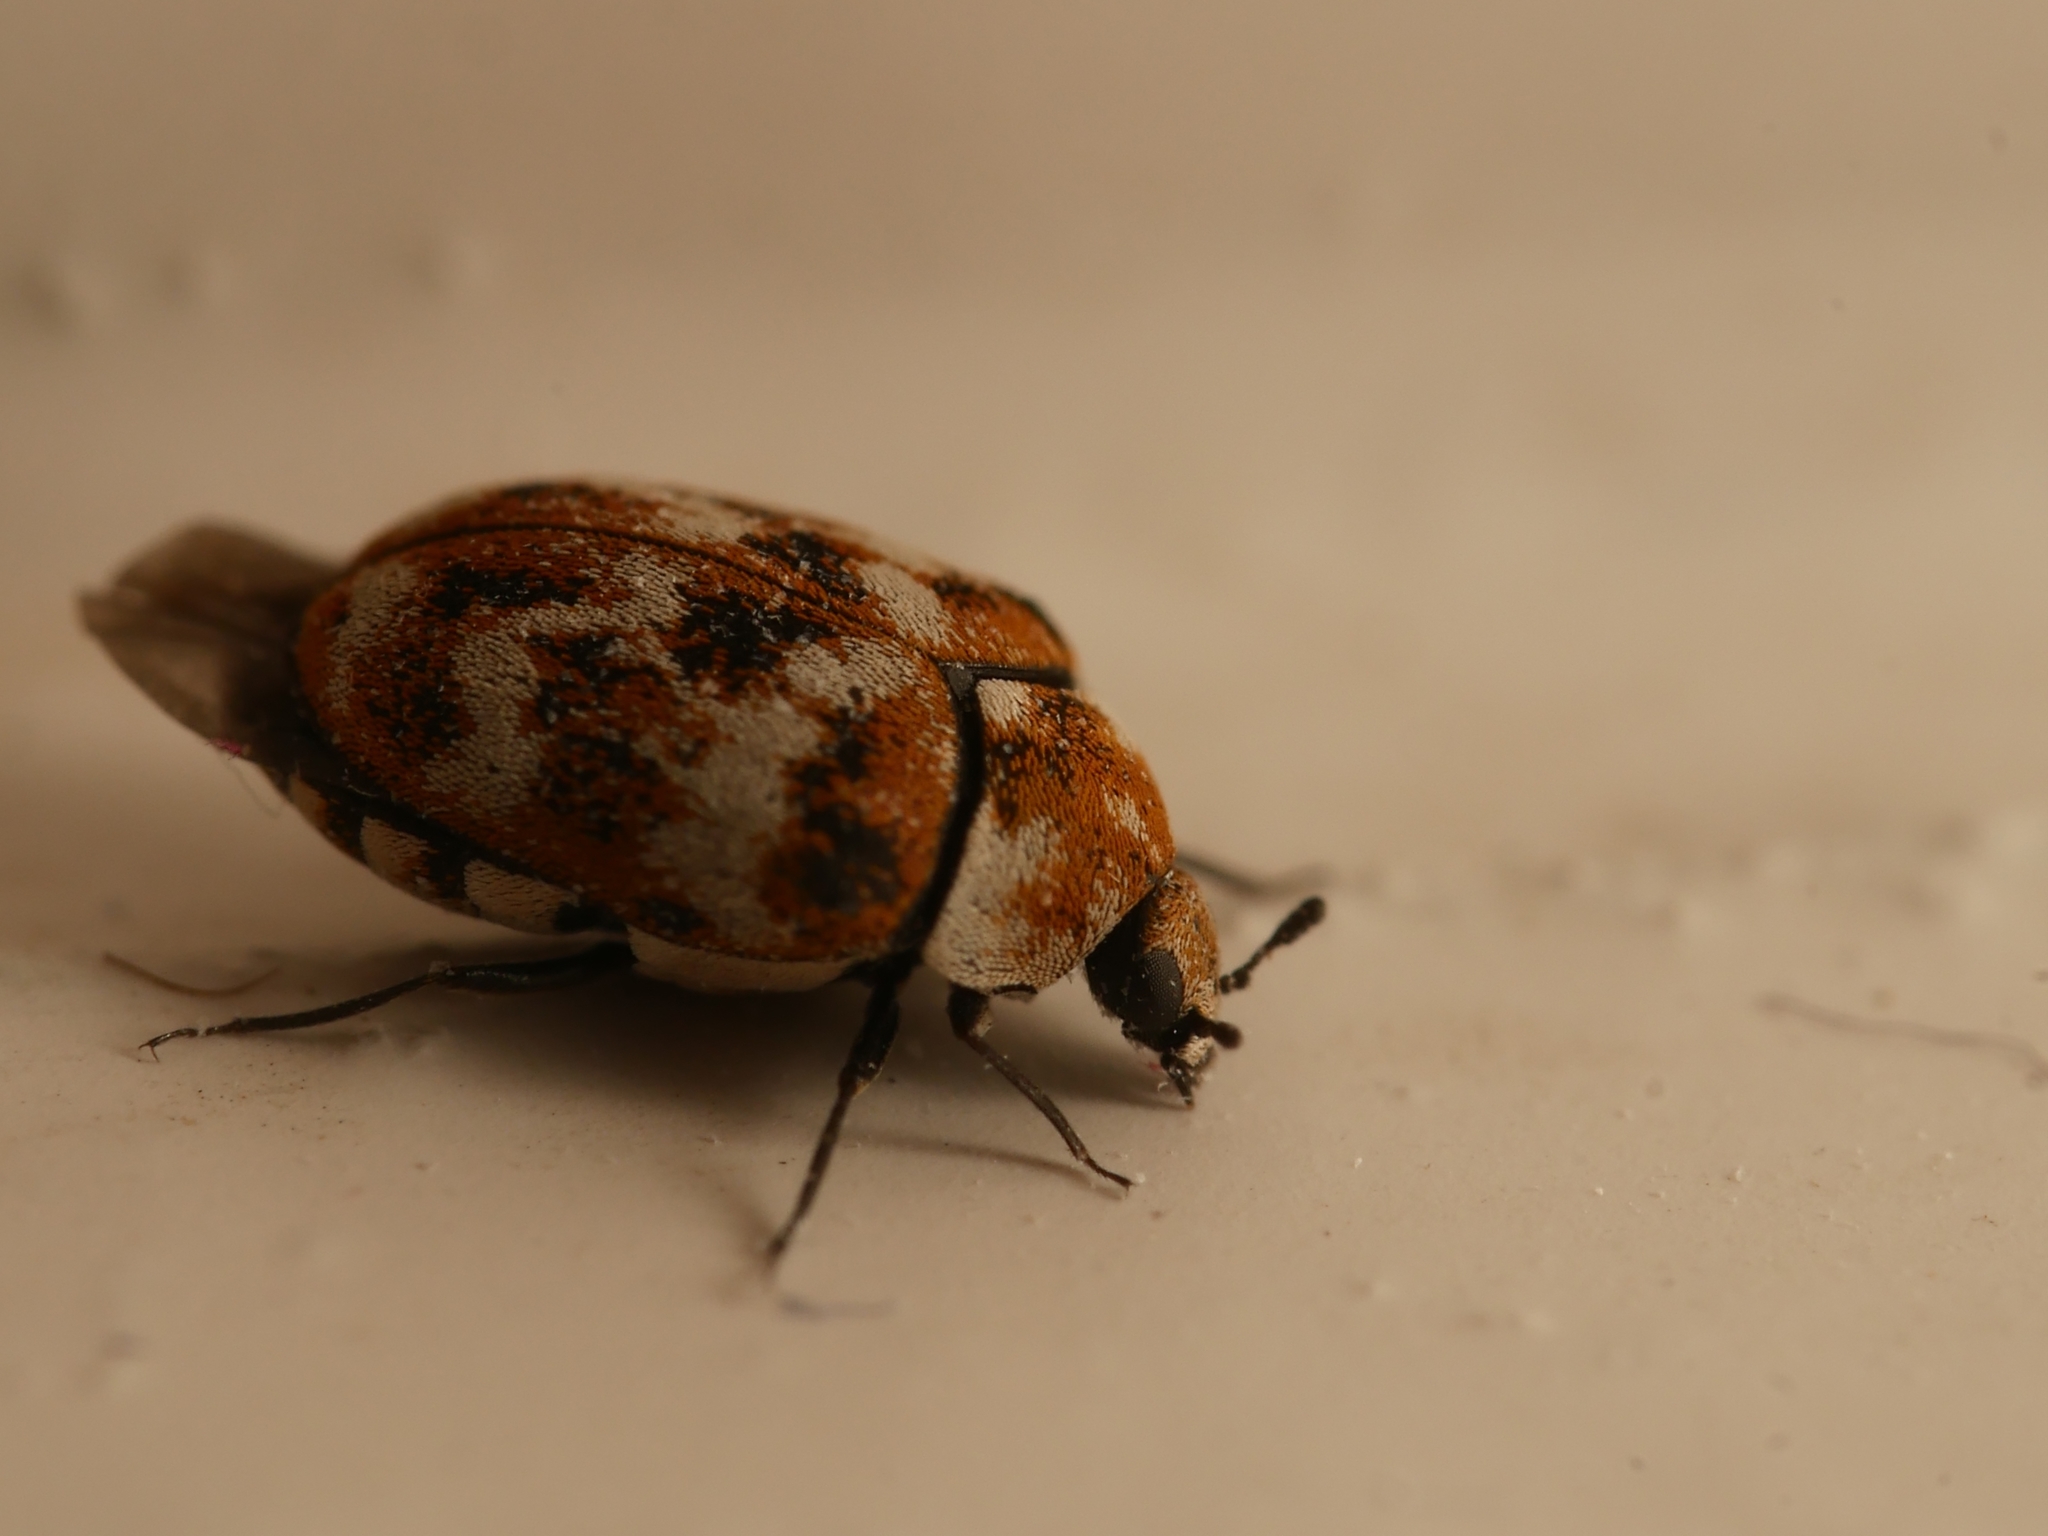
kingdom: Animalia
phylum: Arthropoda
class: Insecta
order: Coleoptera
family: Dermestidae
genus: Anthrenus
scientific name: Anthrenus verbasci
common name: Varied carpet beetle
